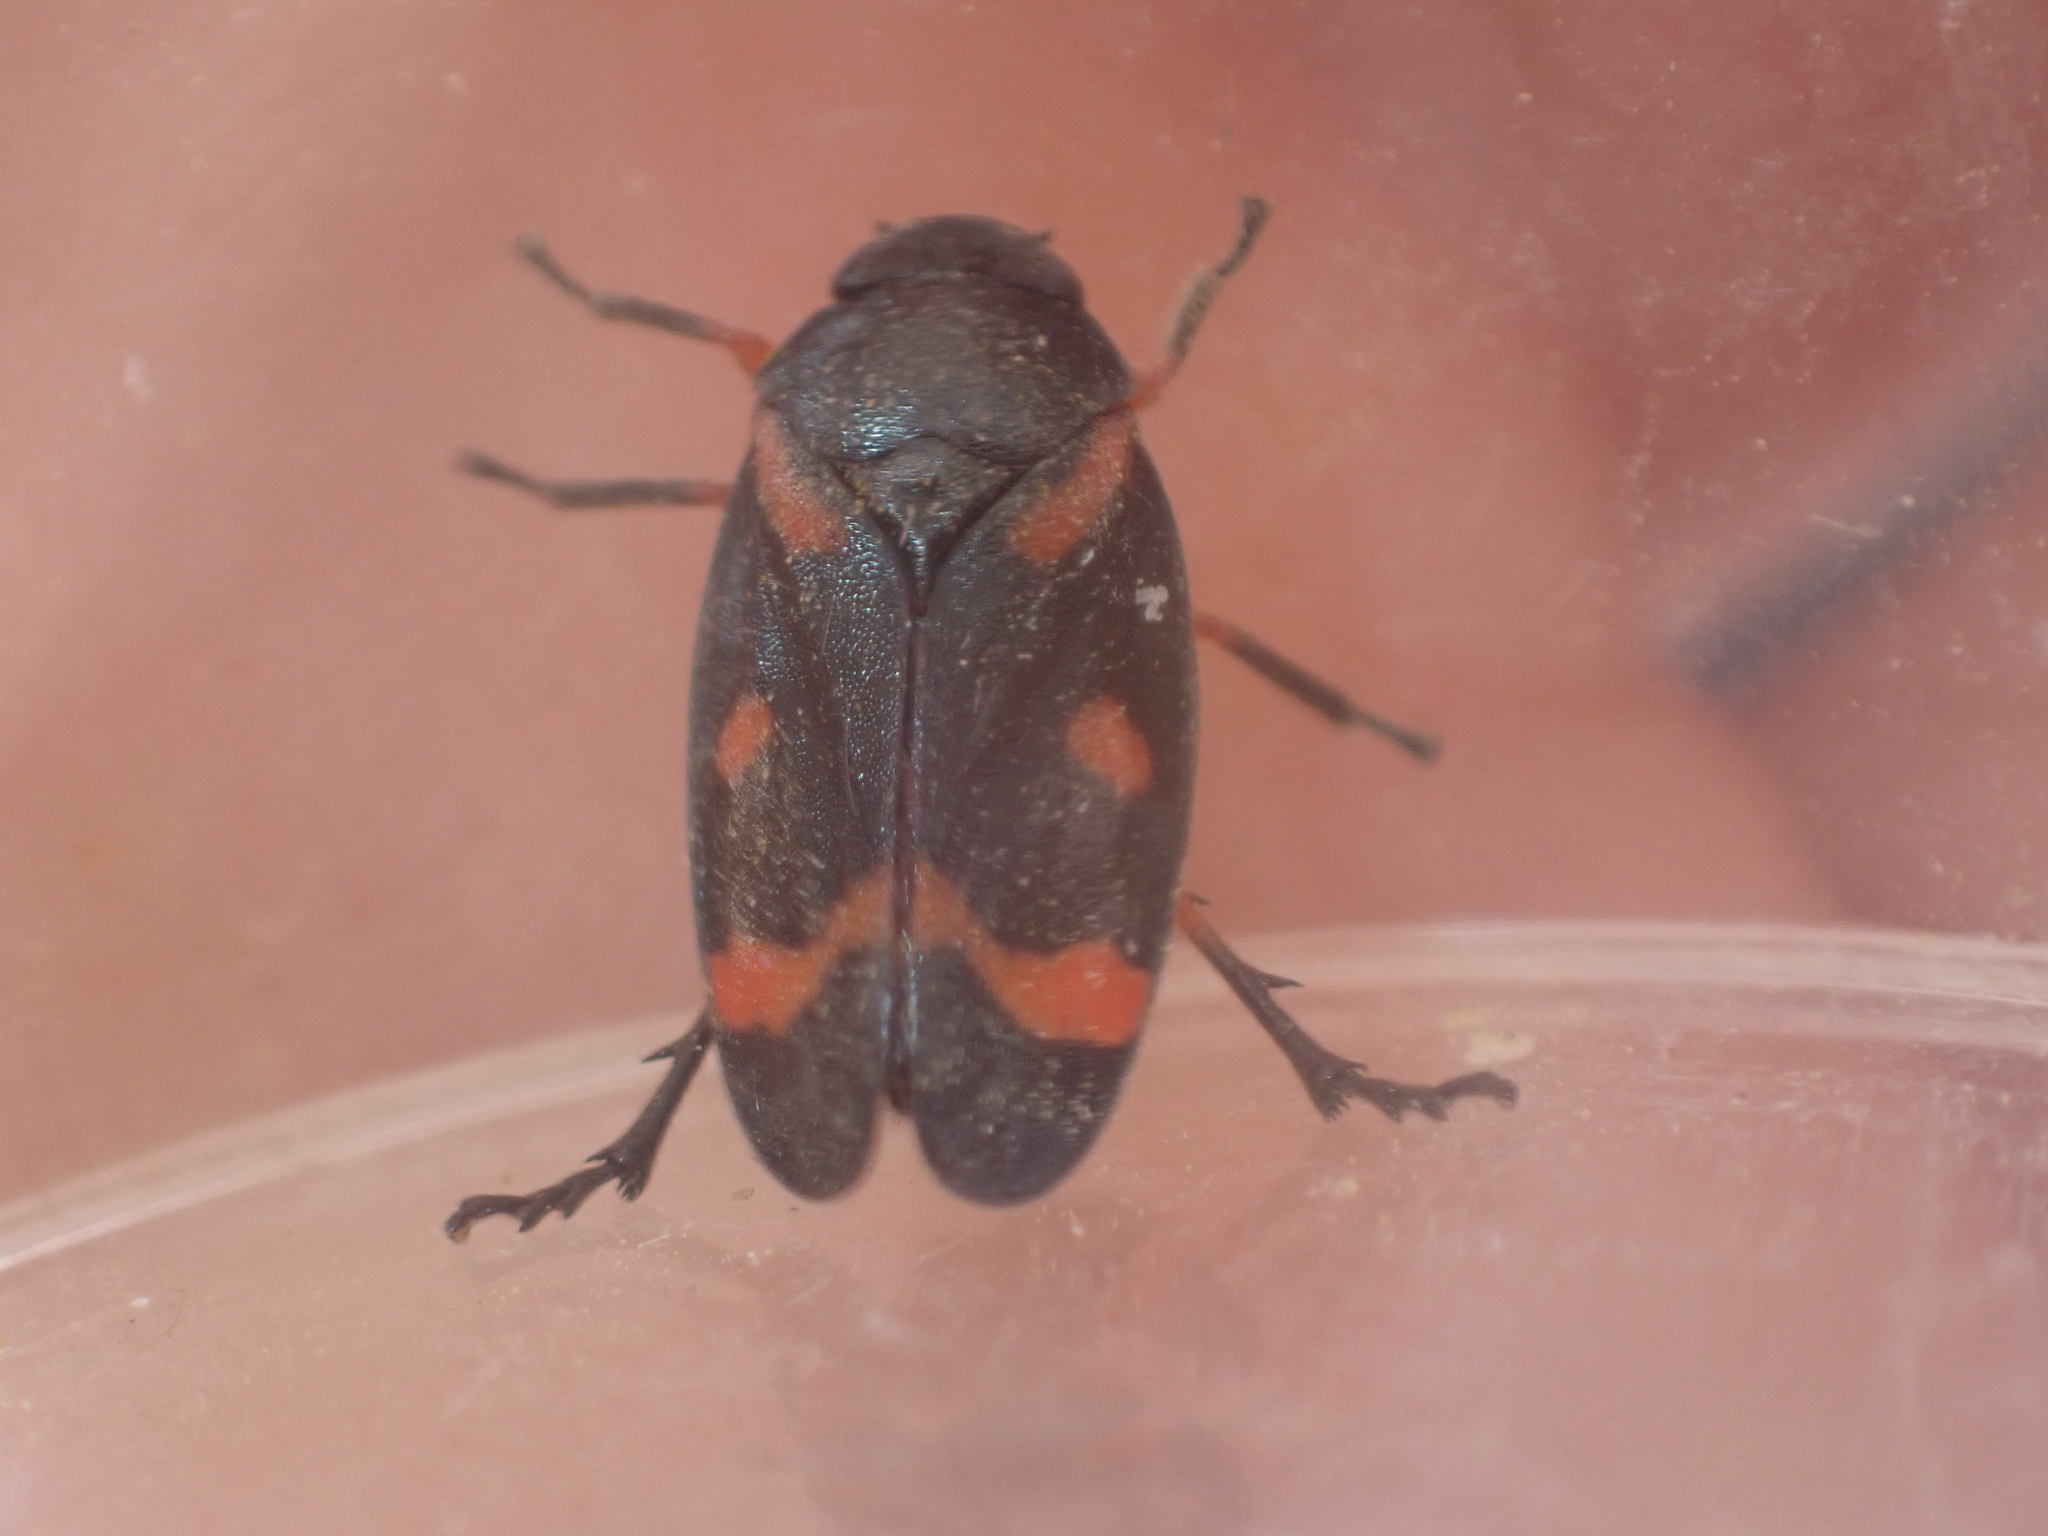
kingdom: Animalia
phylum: Arthropoda
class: Insecta
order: Hemiptera
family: Cercopidae
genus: Cercopis
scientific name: Cercopis intermedia
